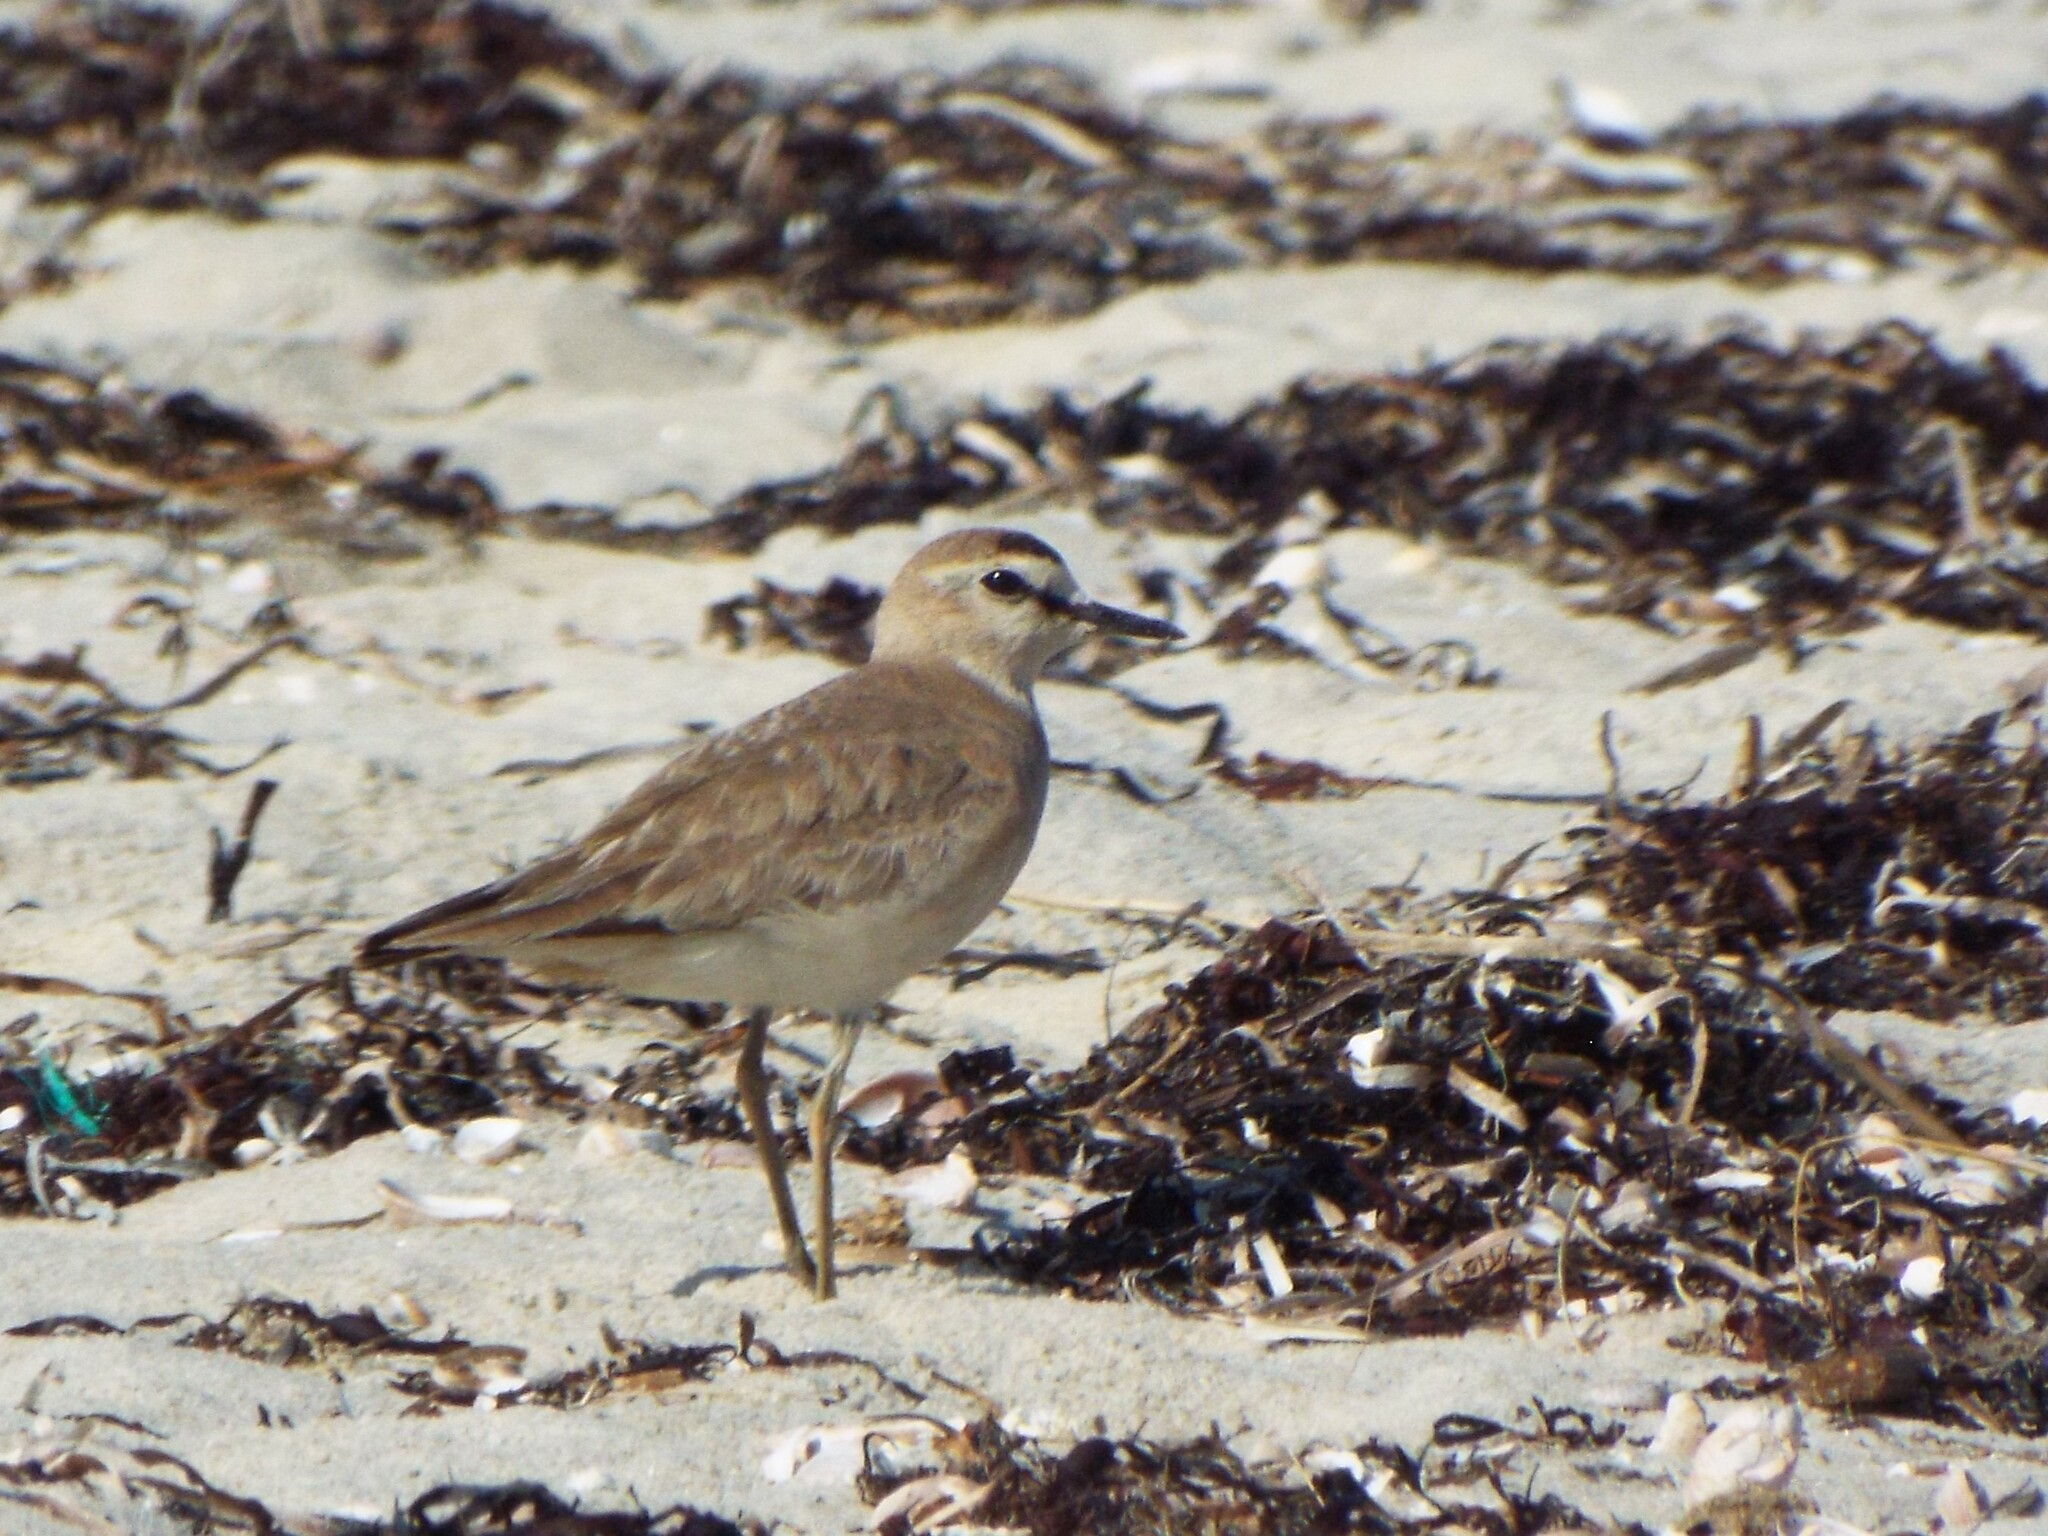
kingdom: Animalia
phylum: Chordata
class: Aves
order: Charadriiformes
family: Charadriidae
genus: Anarhynchus
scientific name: Anarhynchus
